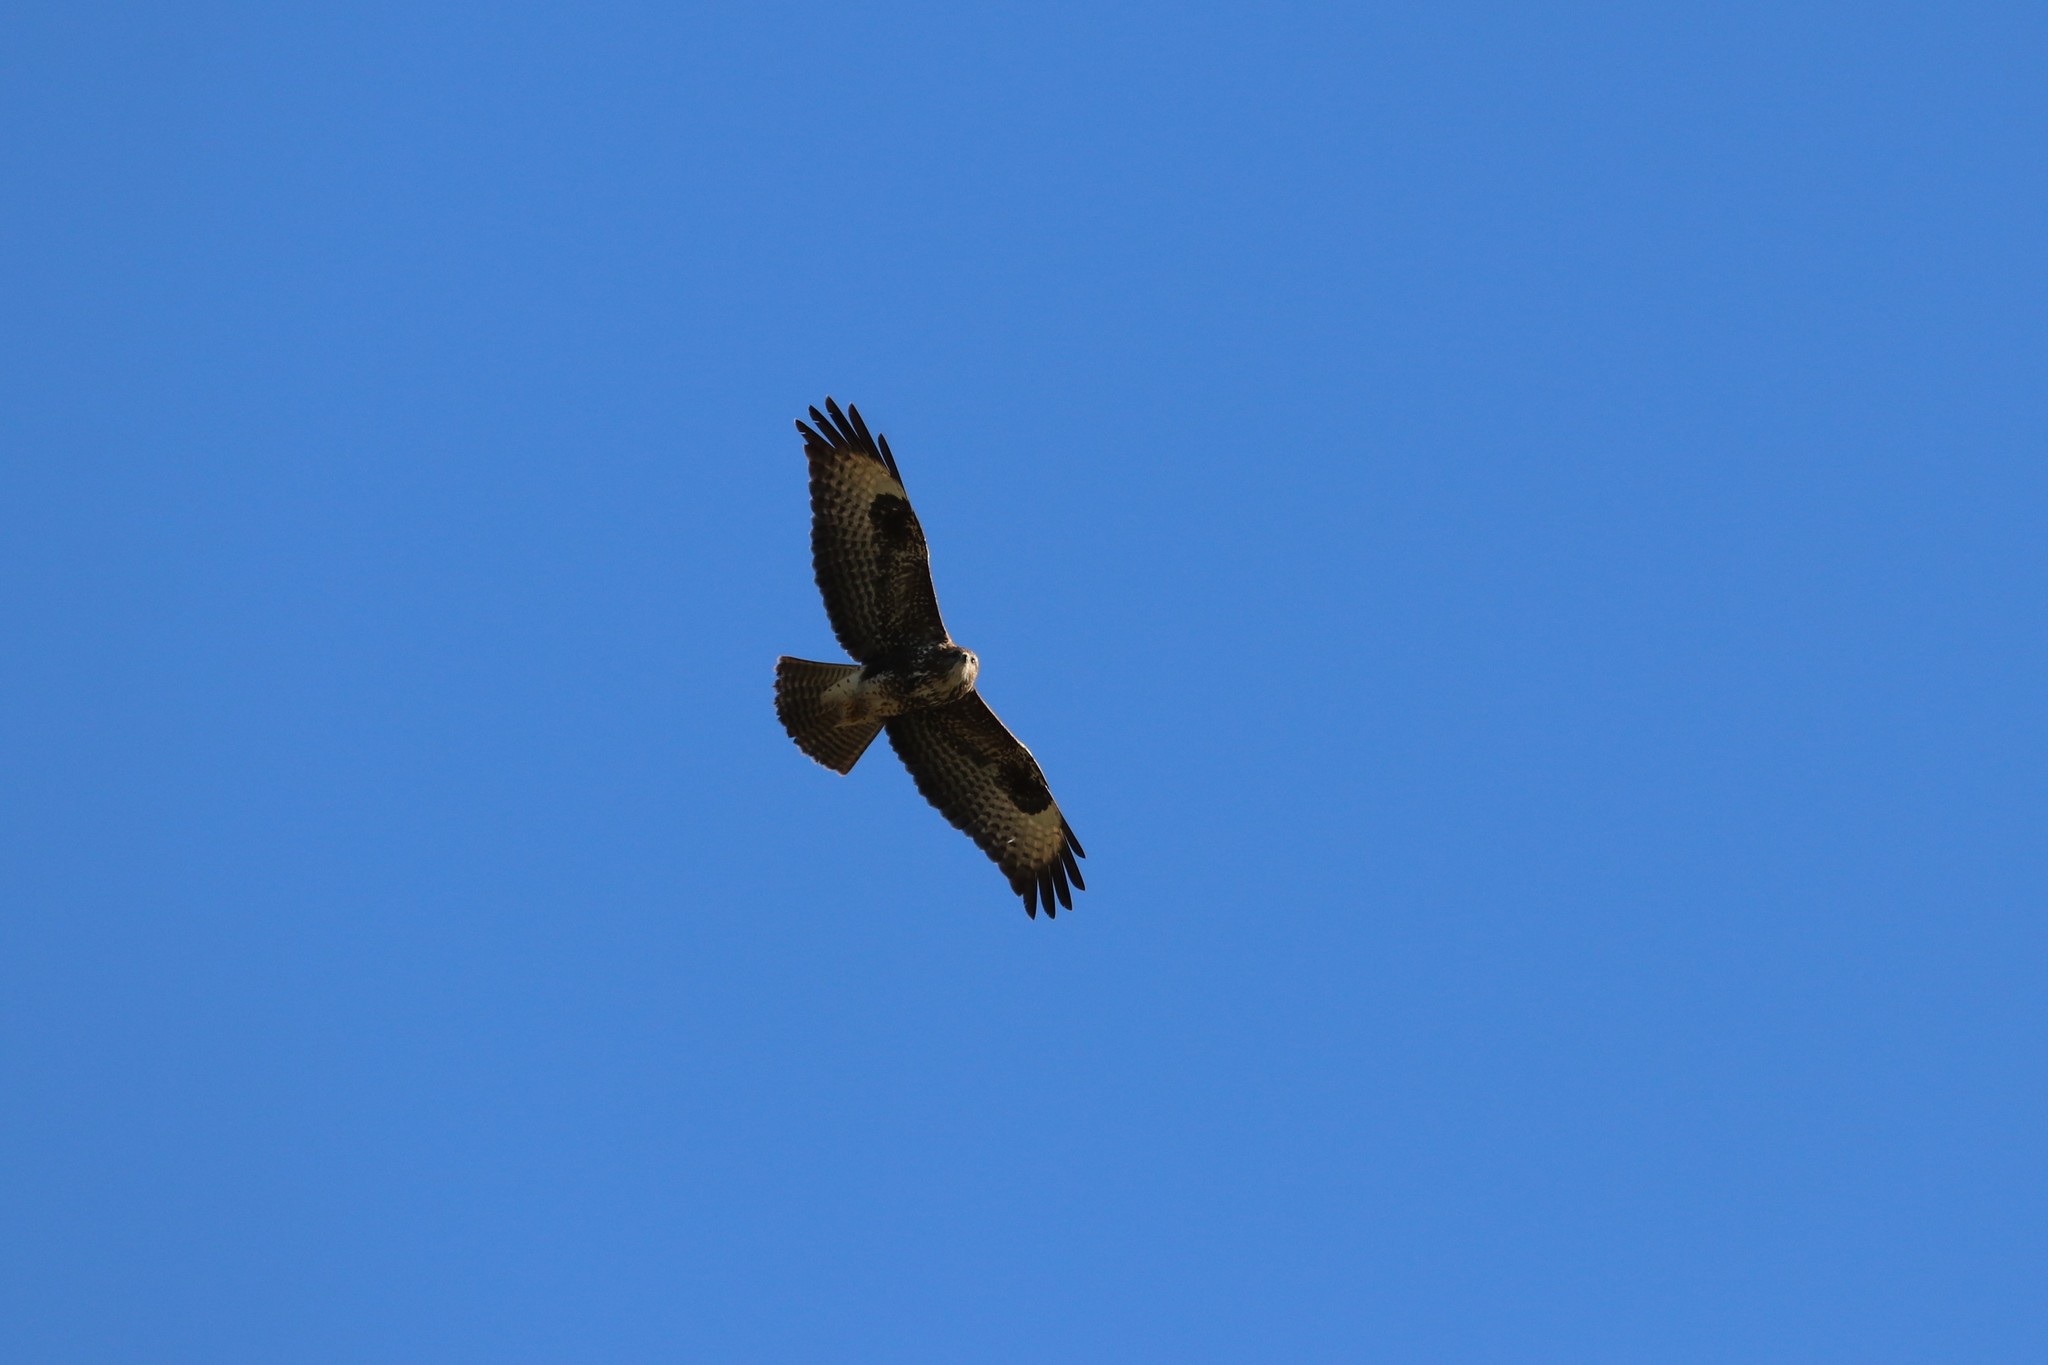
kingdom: Animalia
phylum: Chordata
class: Aves
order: Accipitriformes
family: Accipitridae
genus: Buteo
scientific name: Buteo buteo
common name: Common buzzard
